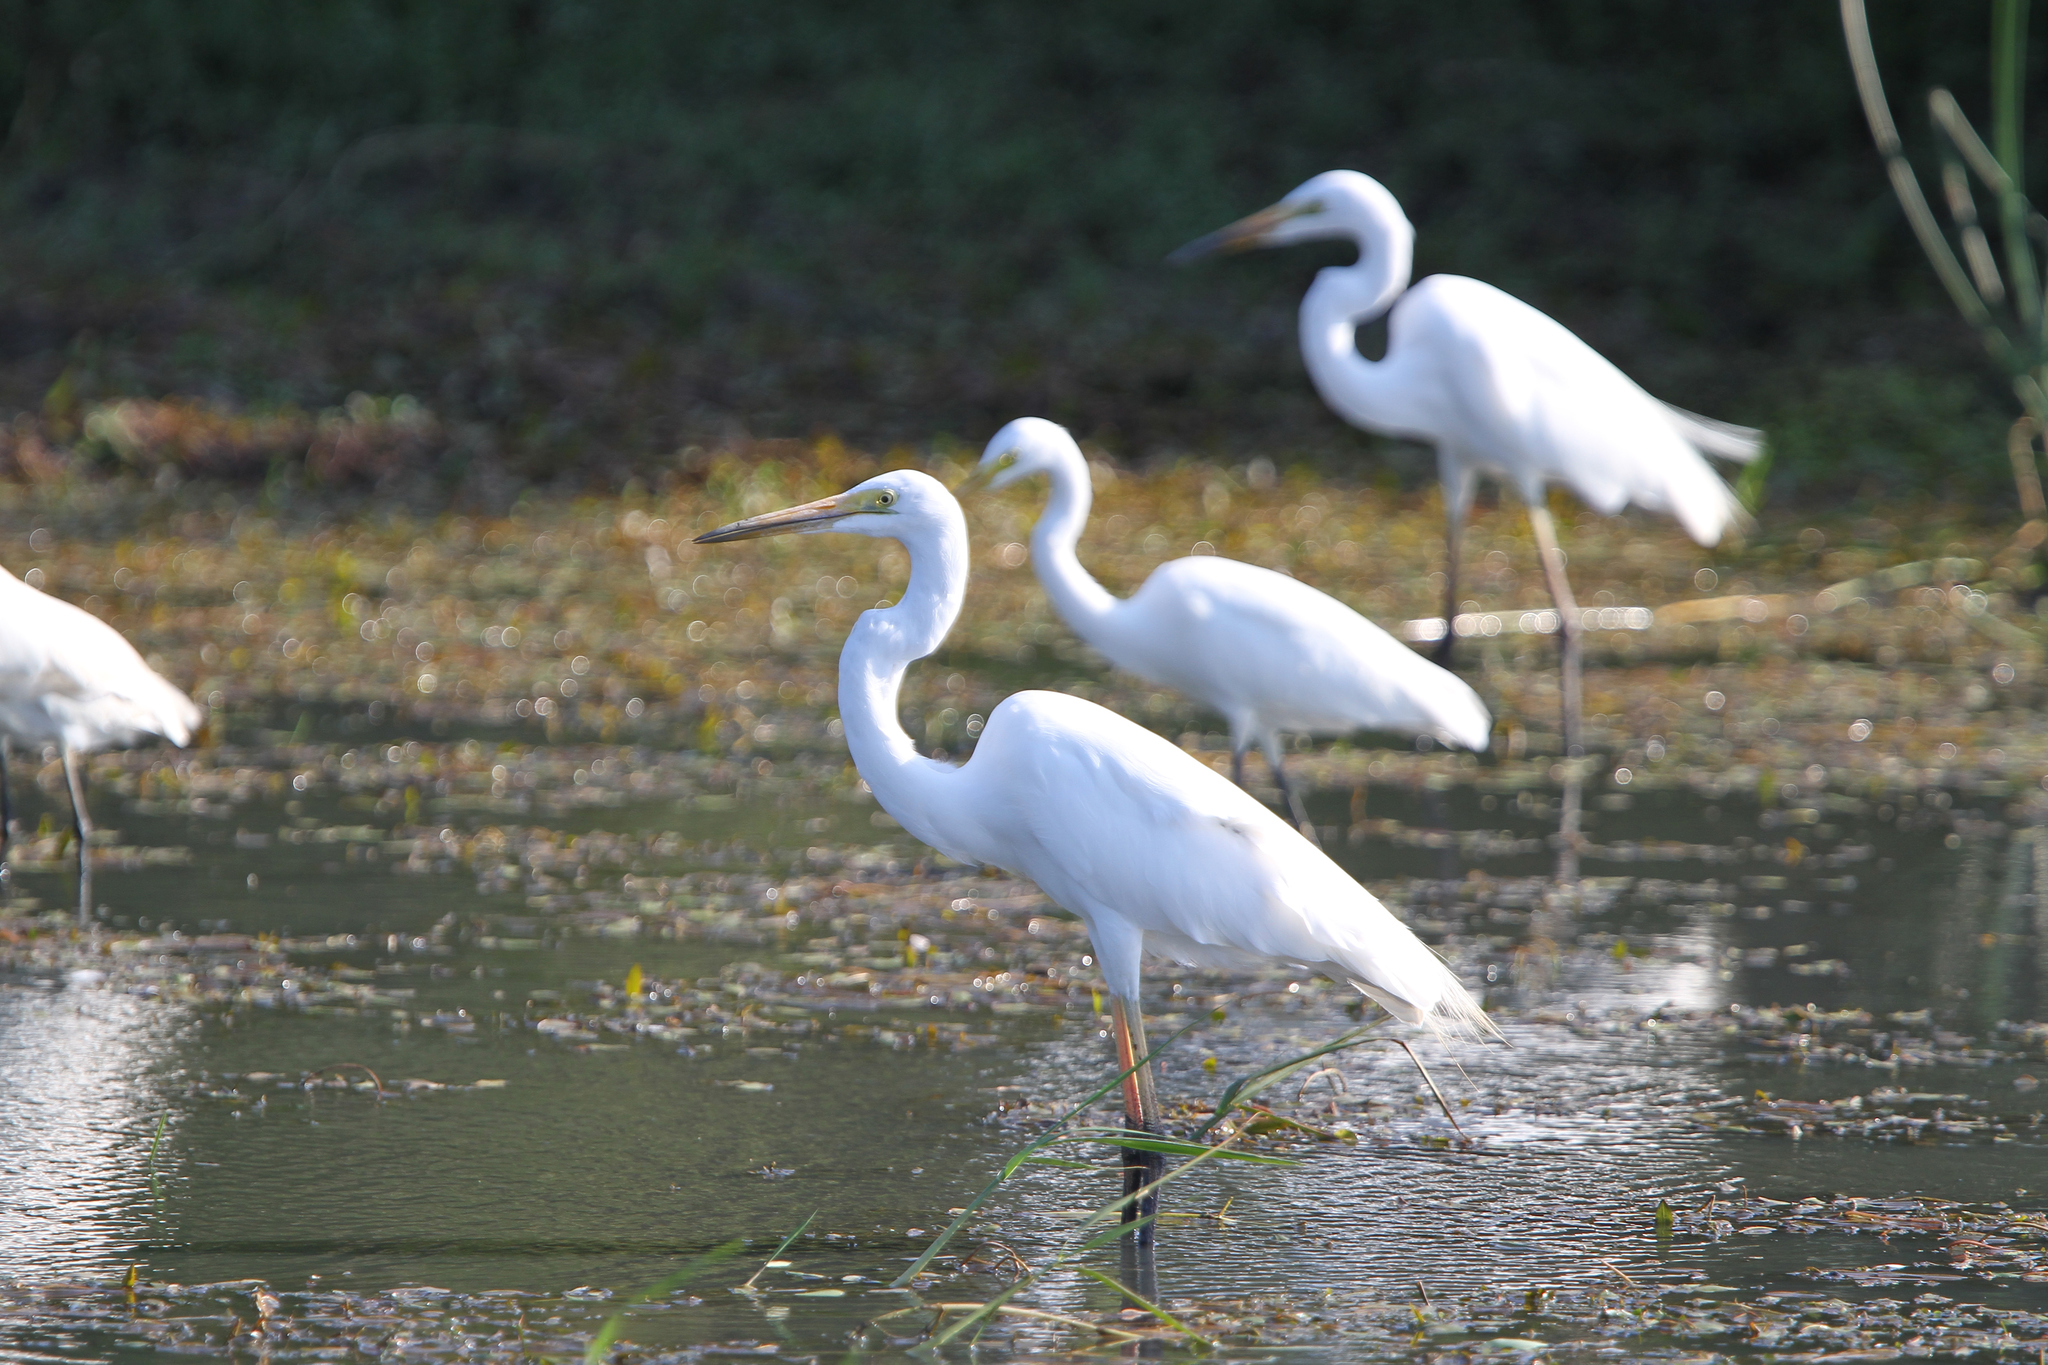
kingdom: Animalia
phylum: Chordata
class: Aves
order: Pelecaniformes
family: Ardeidae
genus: Ardea
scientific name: Ardea alba
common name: Great egret
